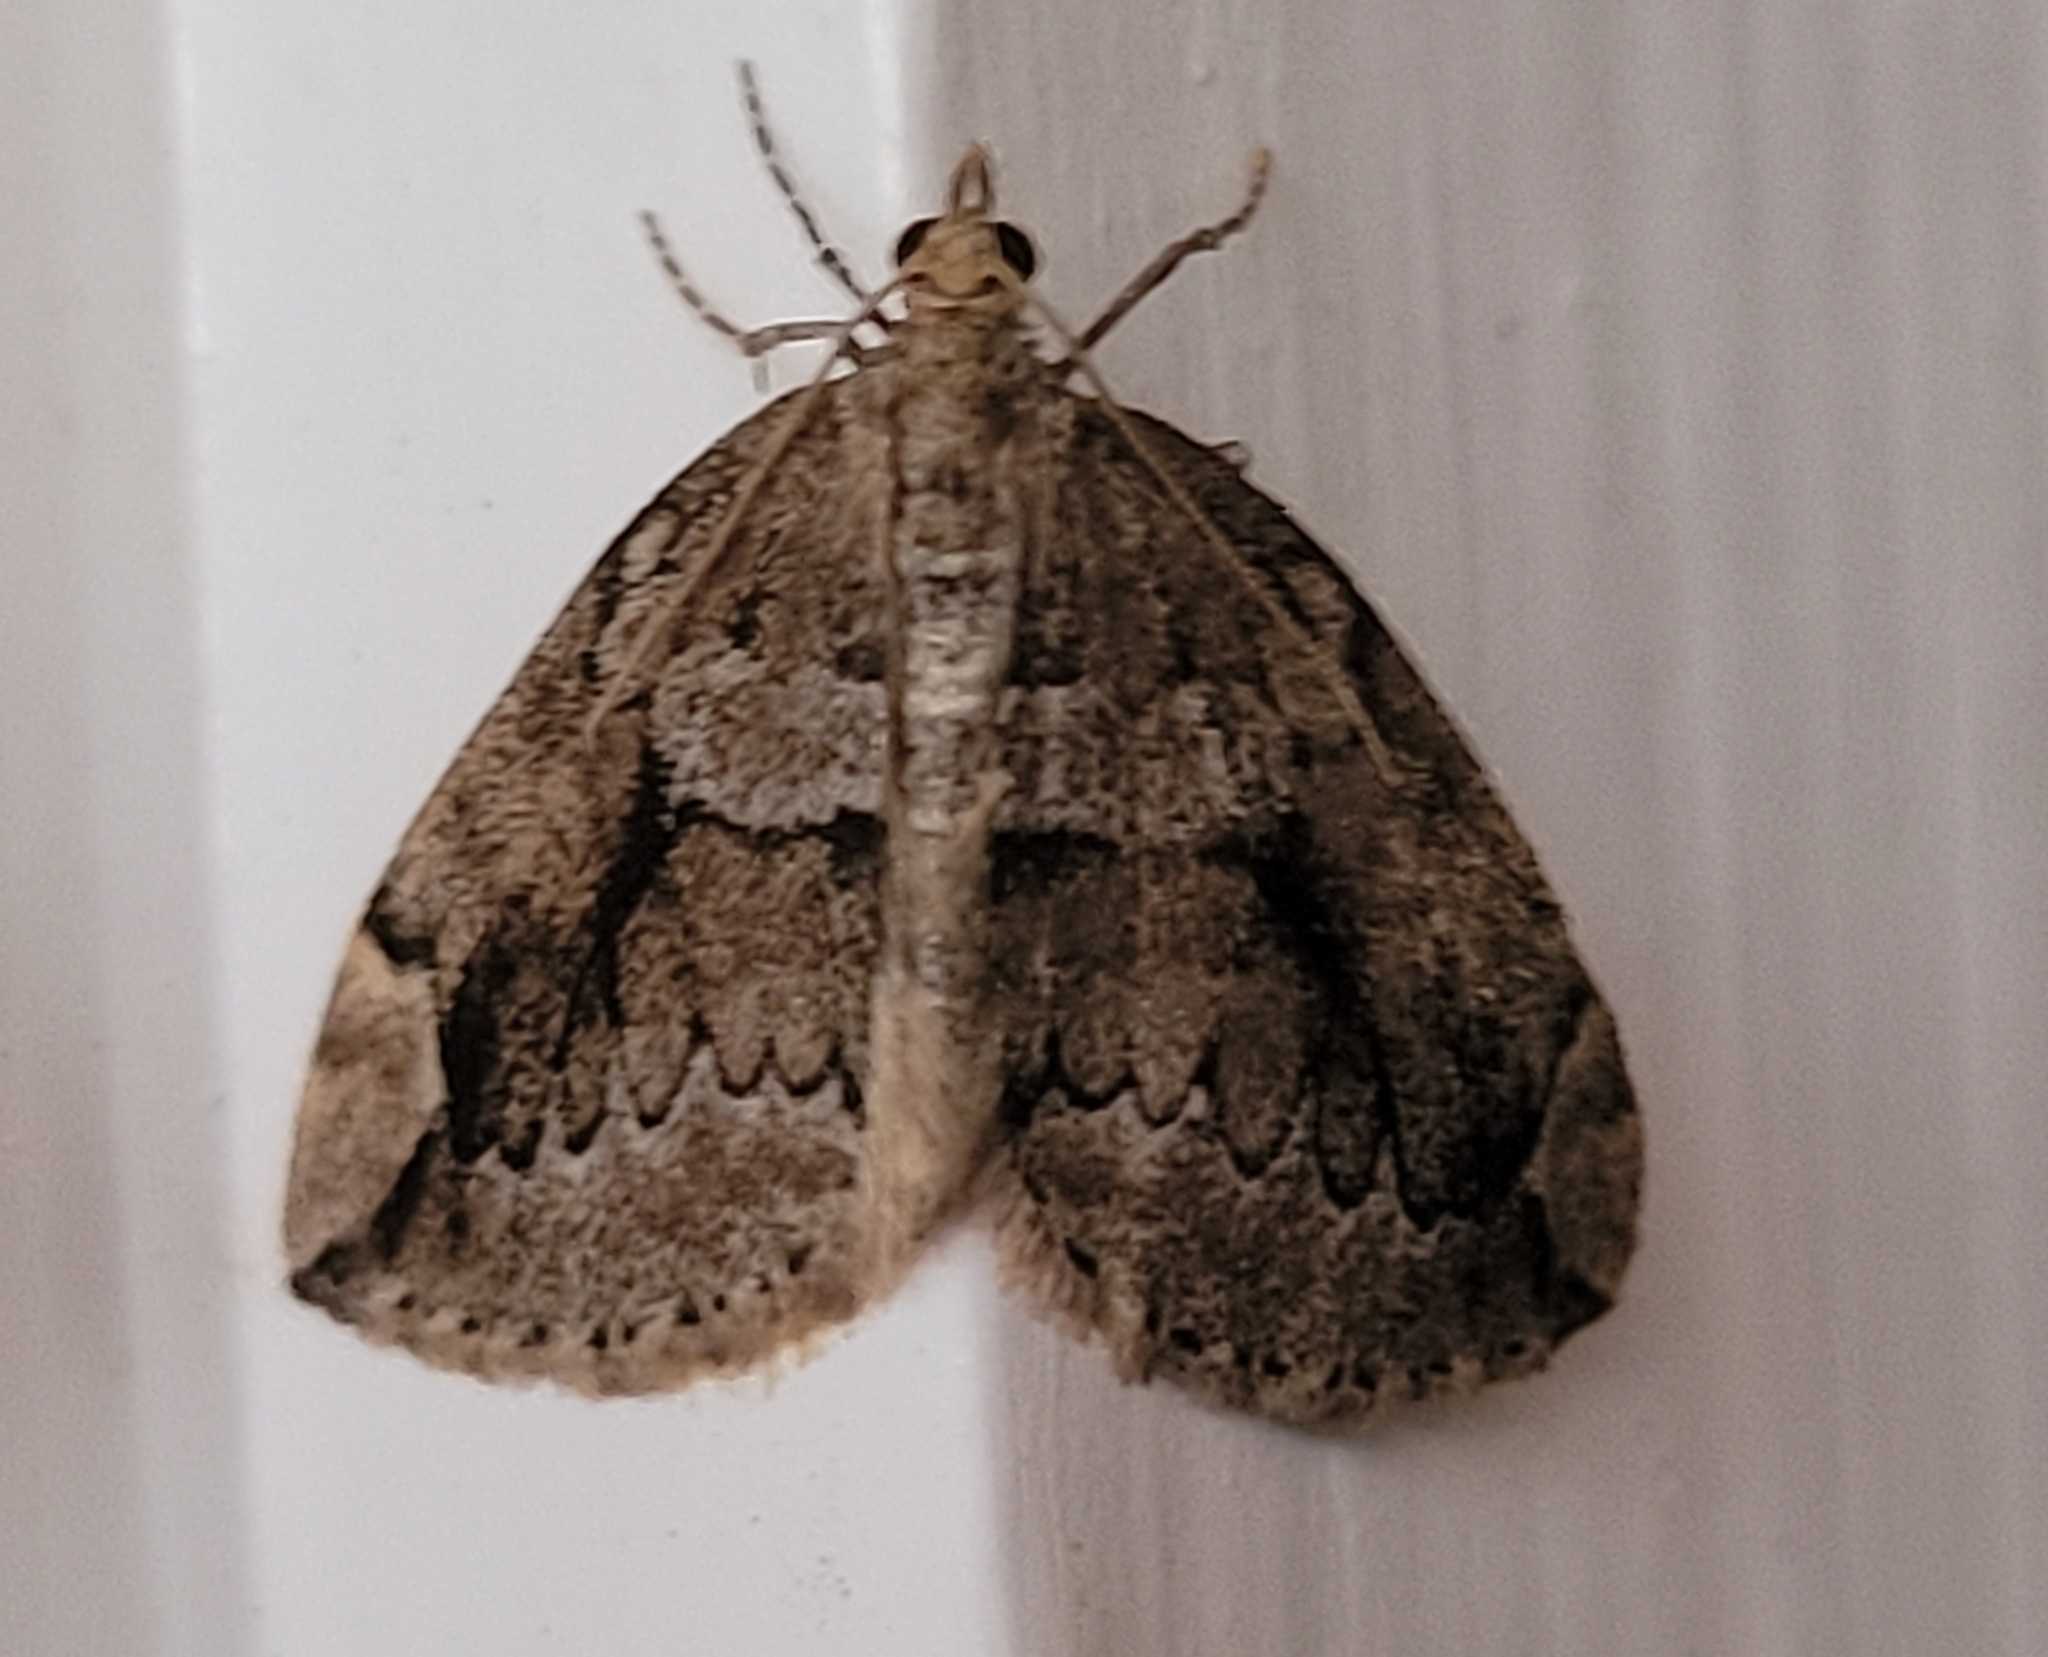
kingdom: Animalia
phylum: Arthropoda
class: Insecta
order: Lepidoptera
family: Geometridae
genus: Thera
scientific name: Thera juniperata
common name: Juniper carpet
